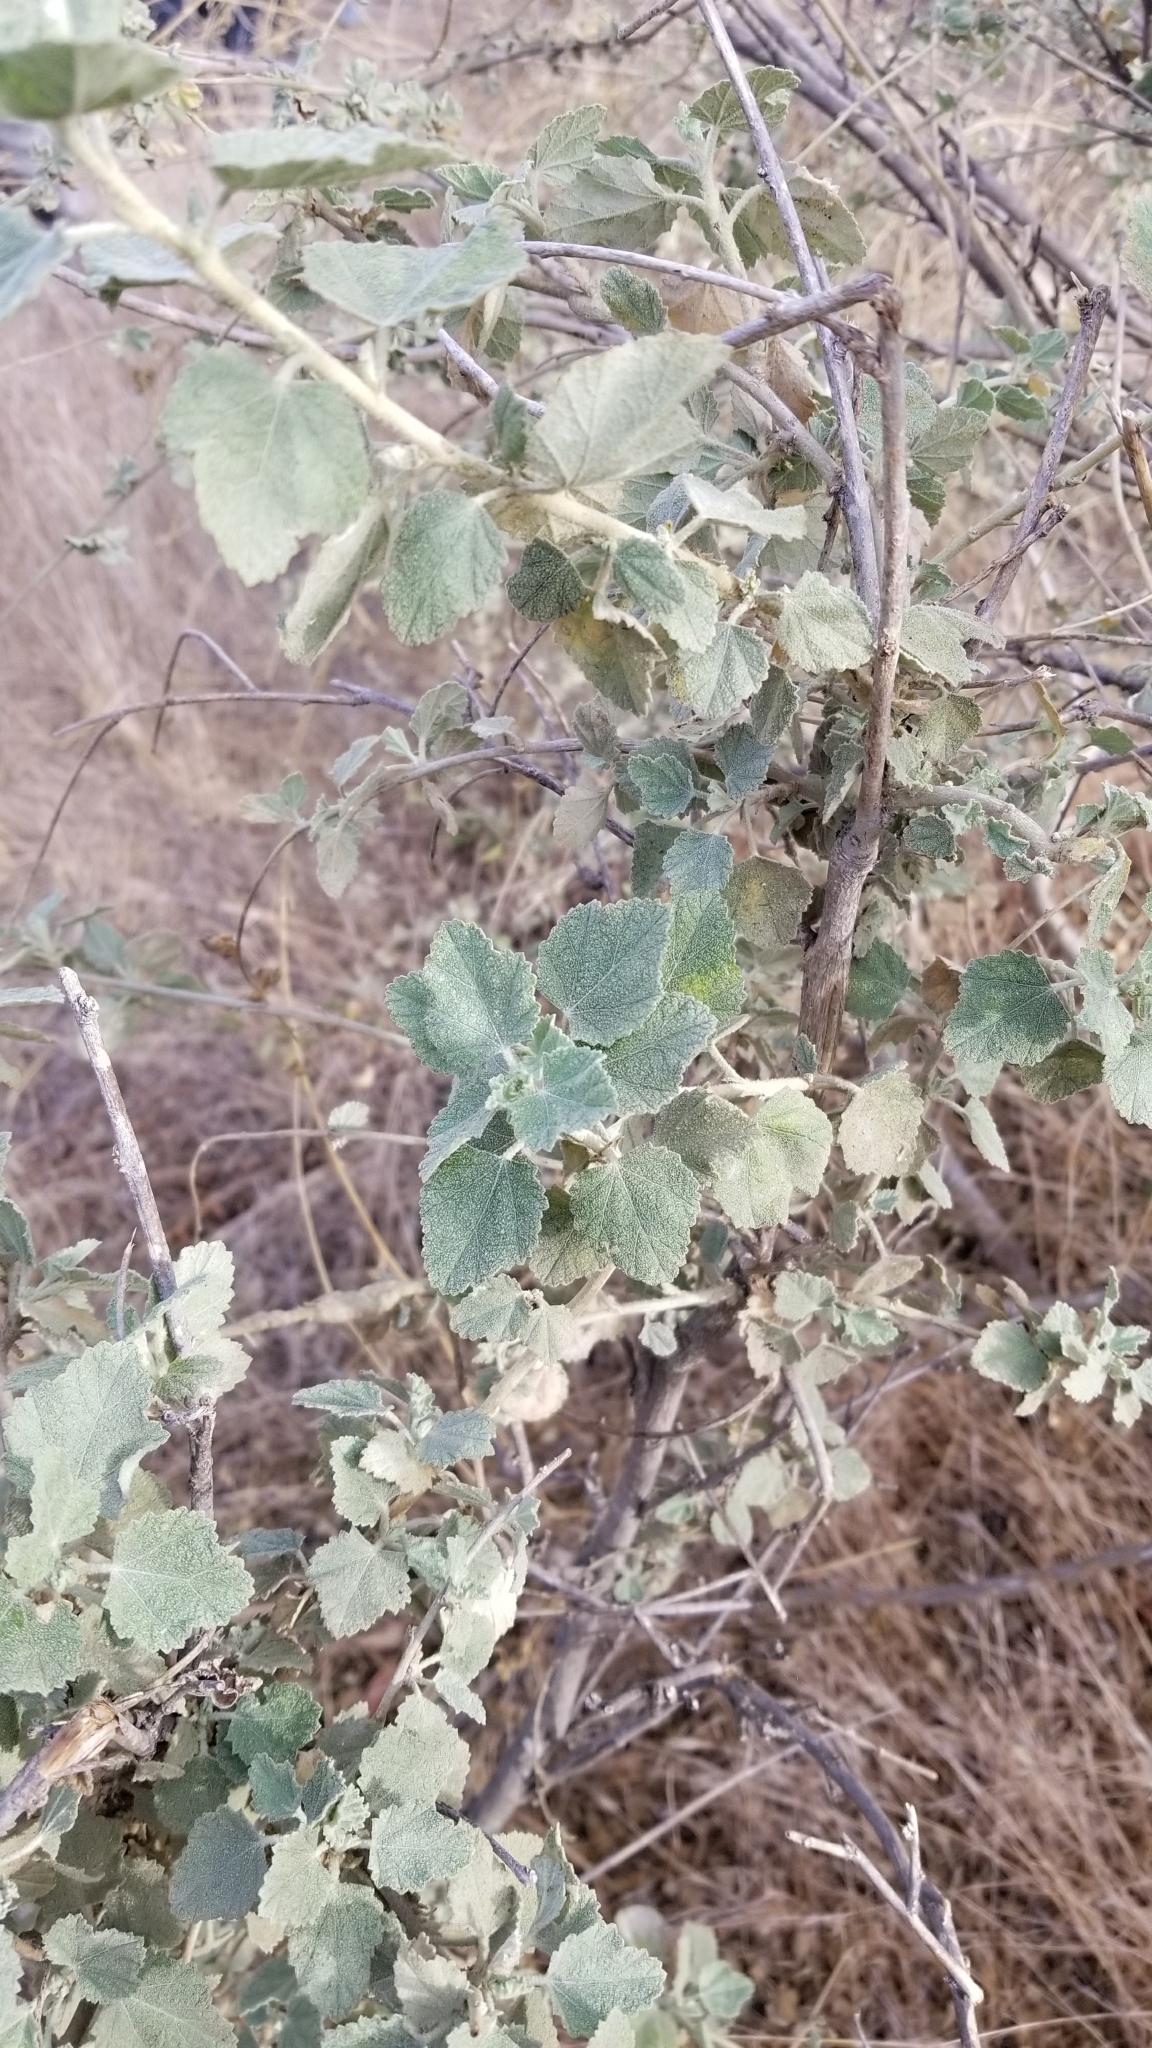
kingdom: Plantae
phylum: Tracheophyta
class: Magnoliopsida
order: Malvales
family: Malvaceae
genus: Malacothamnus
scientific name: Malacothamnus fasciculatus
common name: Sant cruz island bush-mallow
